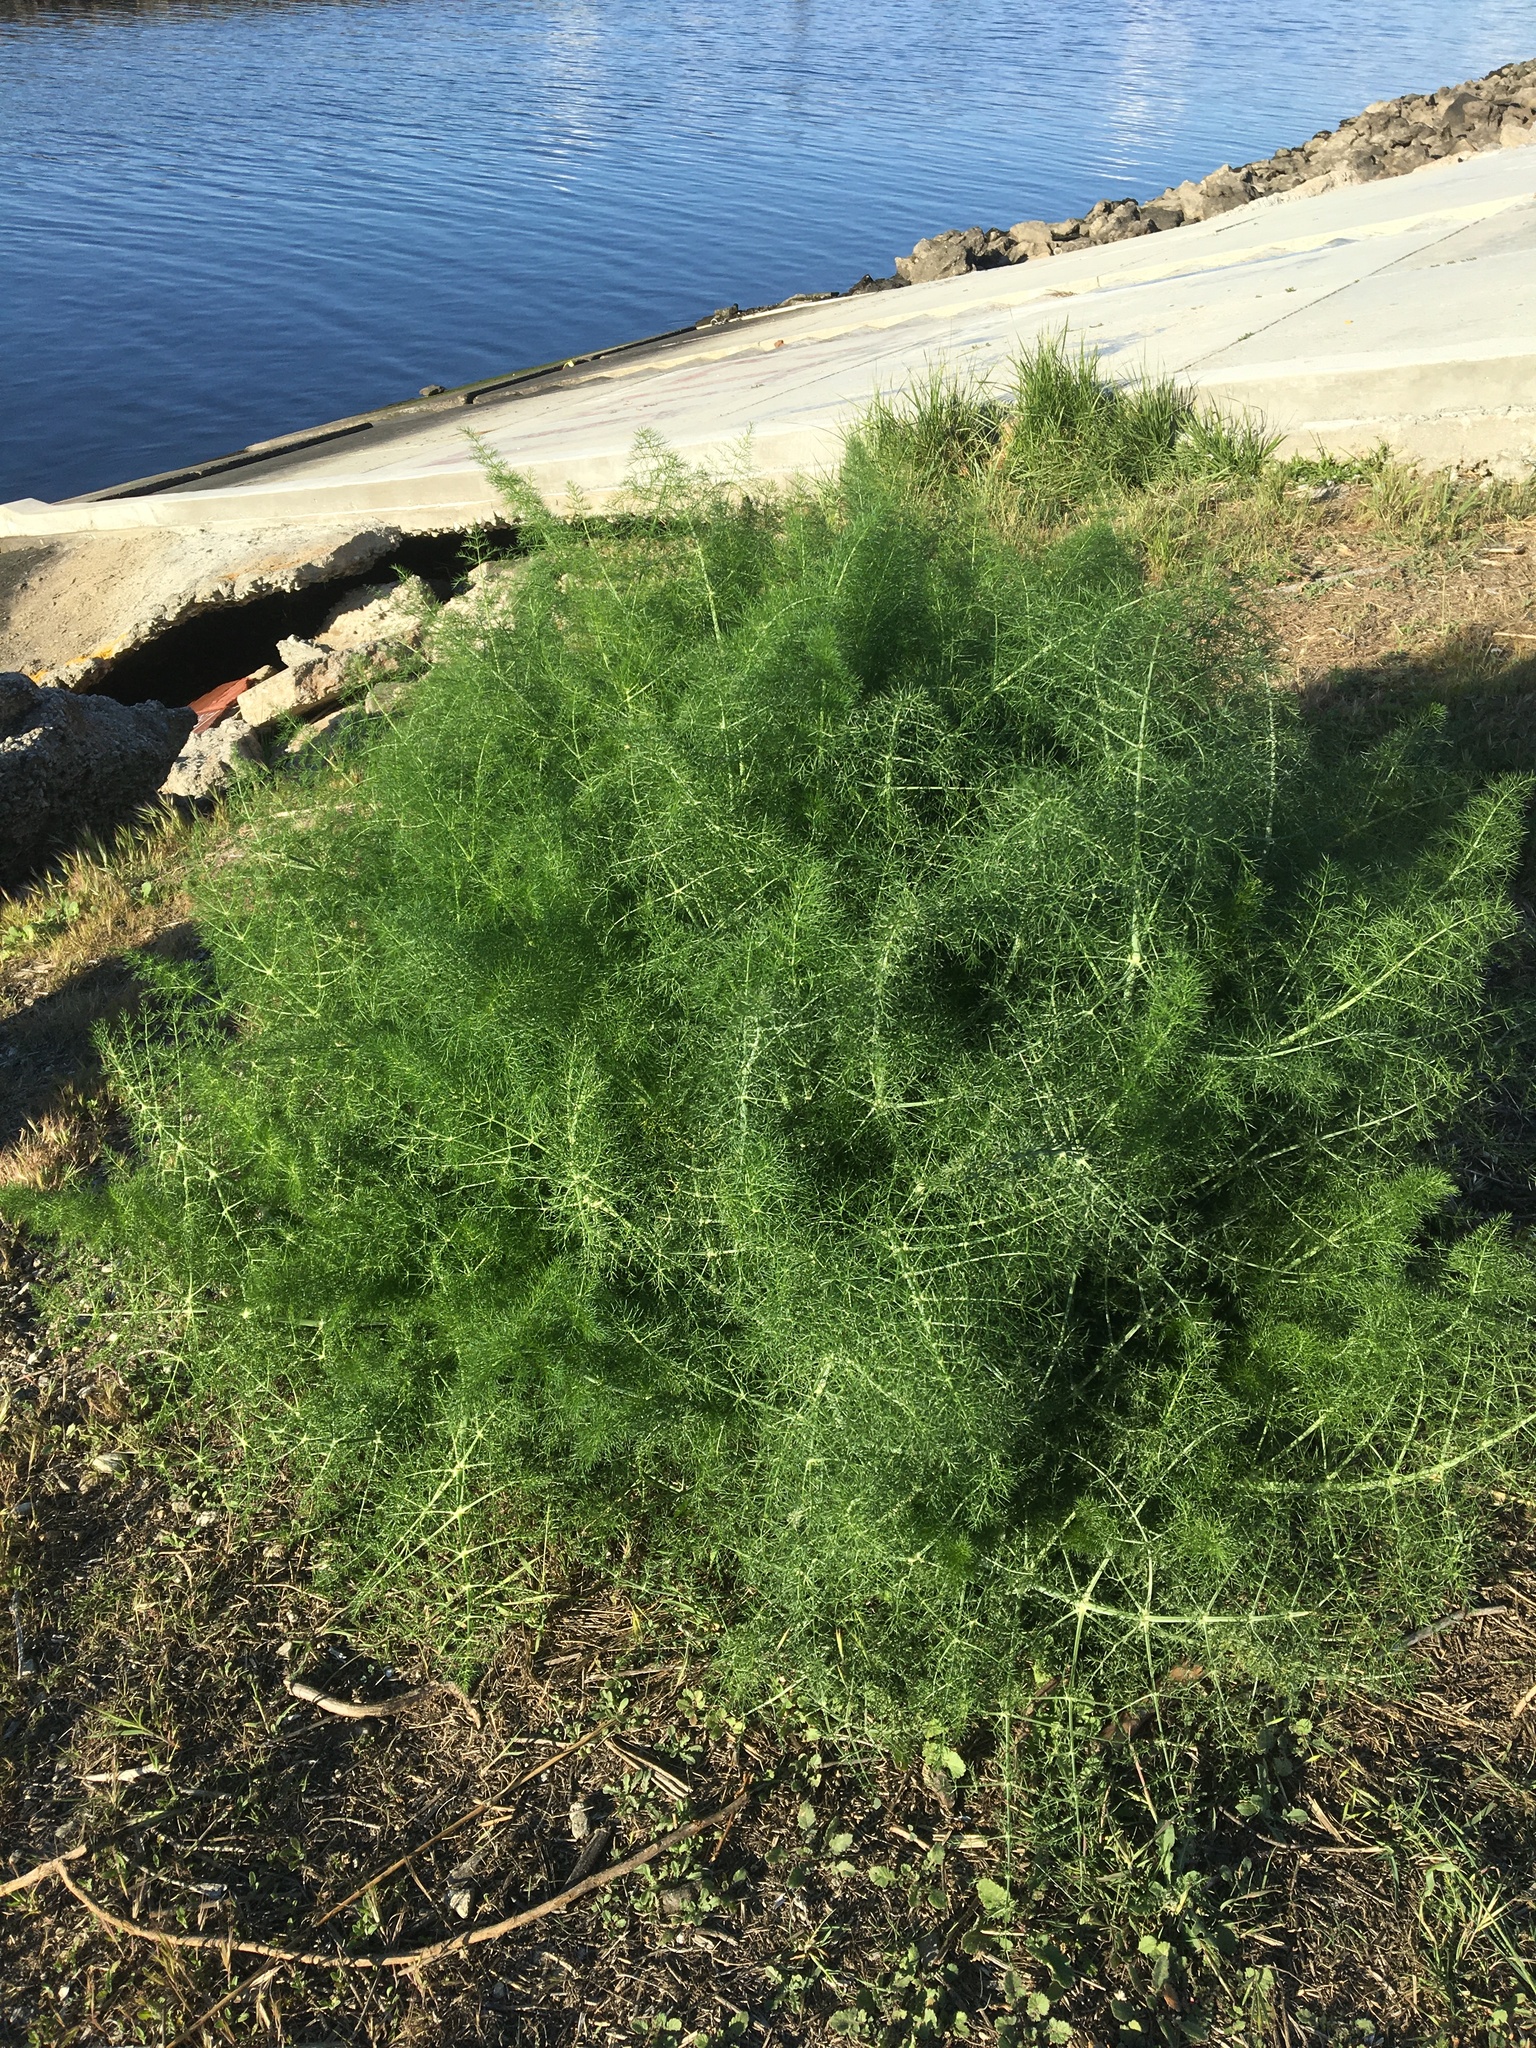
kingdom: Plantae
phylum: Tracheophyta
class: Magnoliopsida
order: Apiales
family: Apiaceae
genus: Foeniculum
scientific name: Foeniculum vulgare
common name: Fennel
